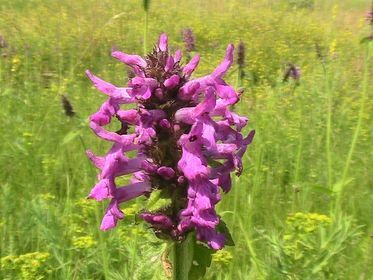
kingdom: Plantae
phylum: Tracheophyta
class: Magnoliopsida
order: Lamiales
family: Lamiaceae
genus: Betonica
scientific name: Betonica officinalis
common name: Bishop's-wort
